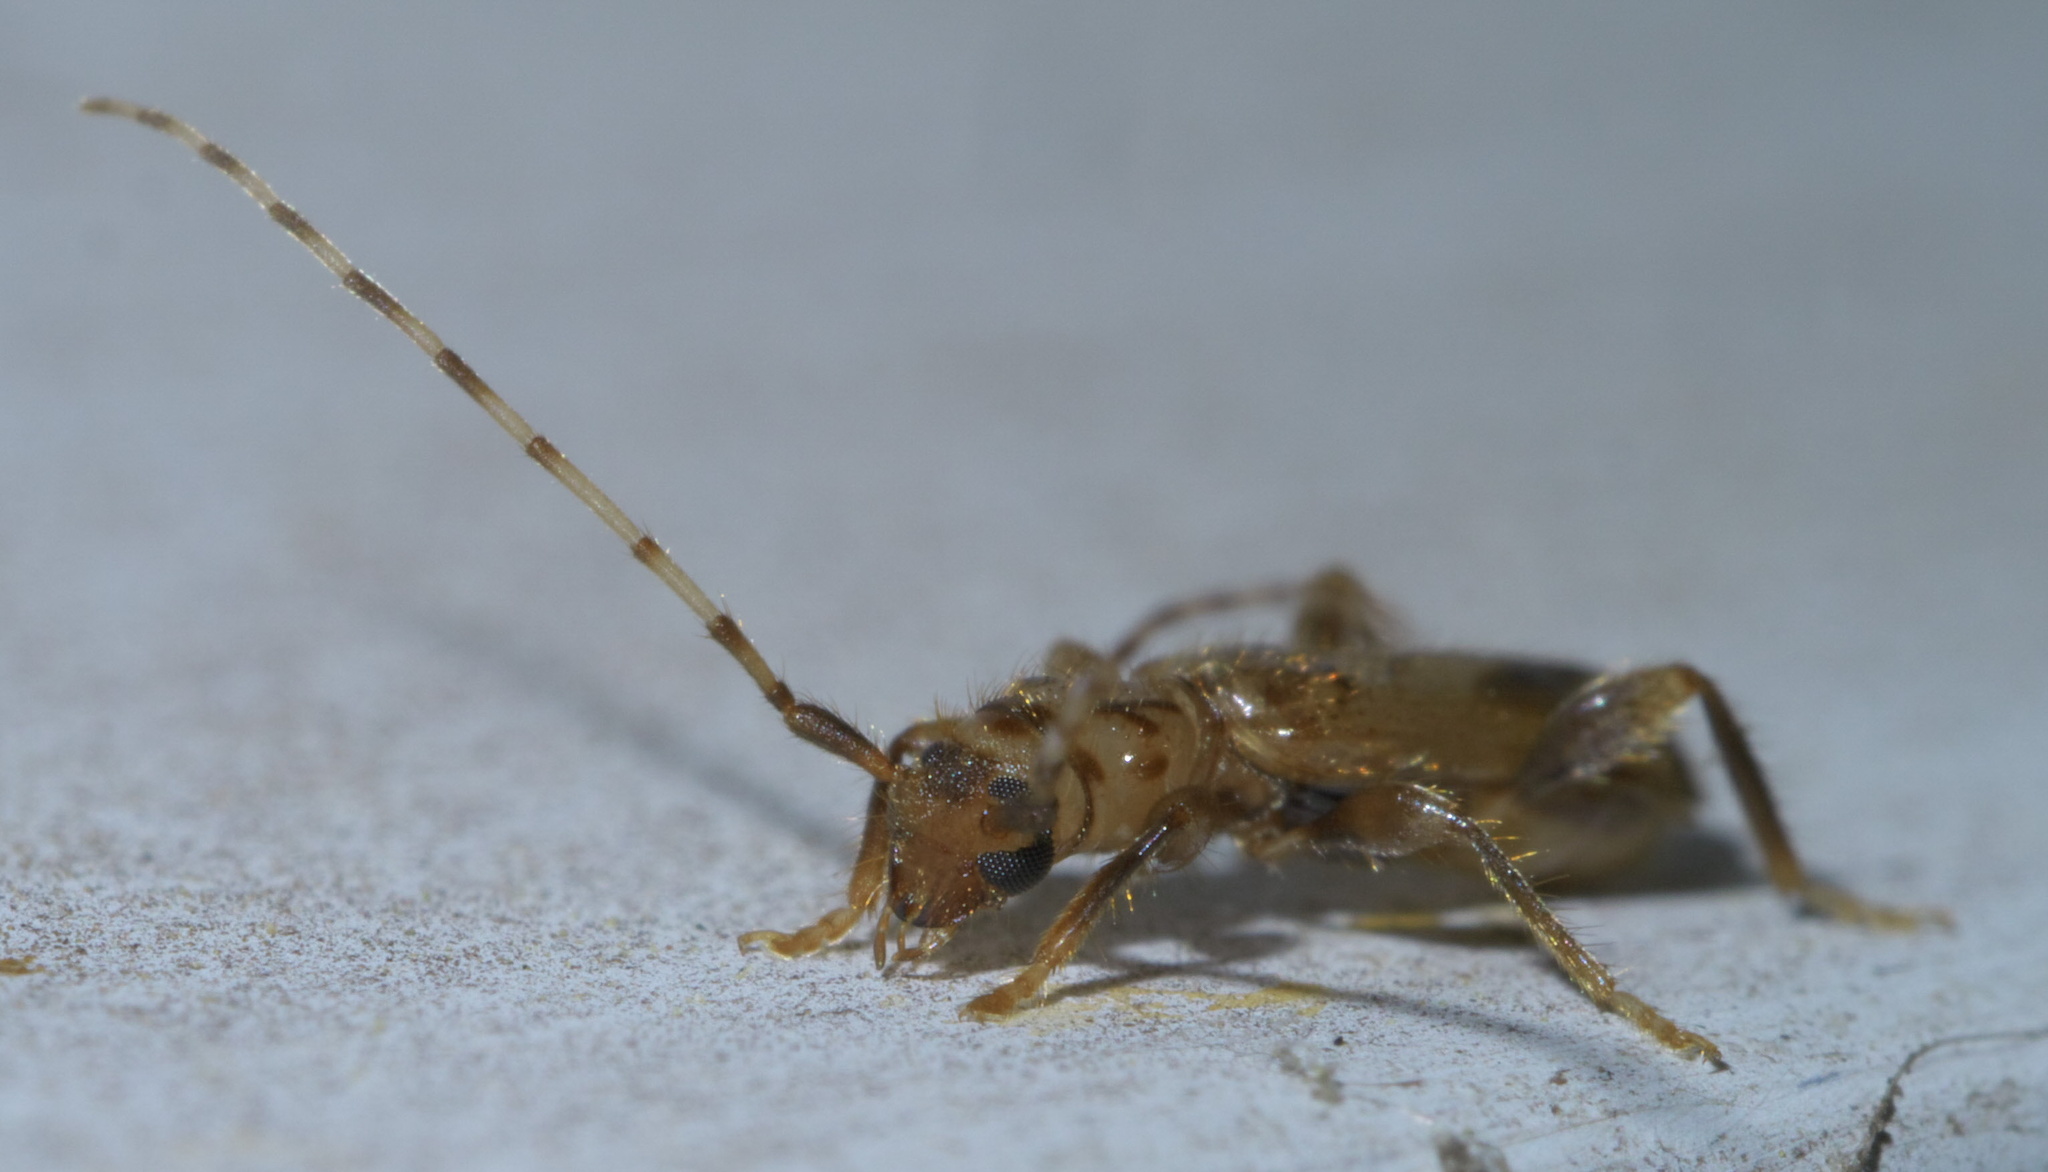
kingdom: Animalia
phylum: Arthropoda
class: Insecta
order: Coleoptera
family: Cerambycidae
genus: Obrium
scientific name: Obrium maculatum
